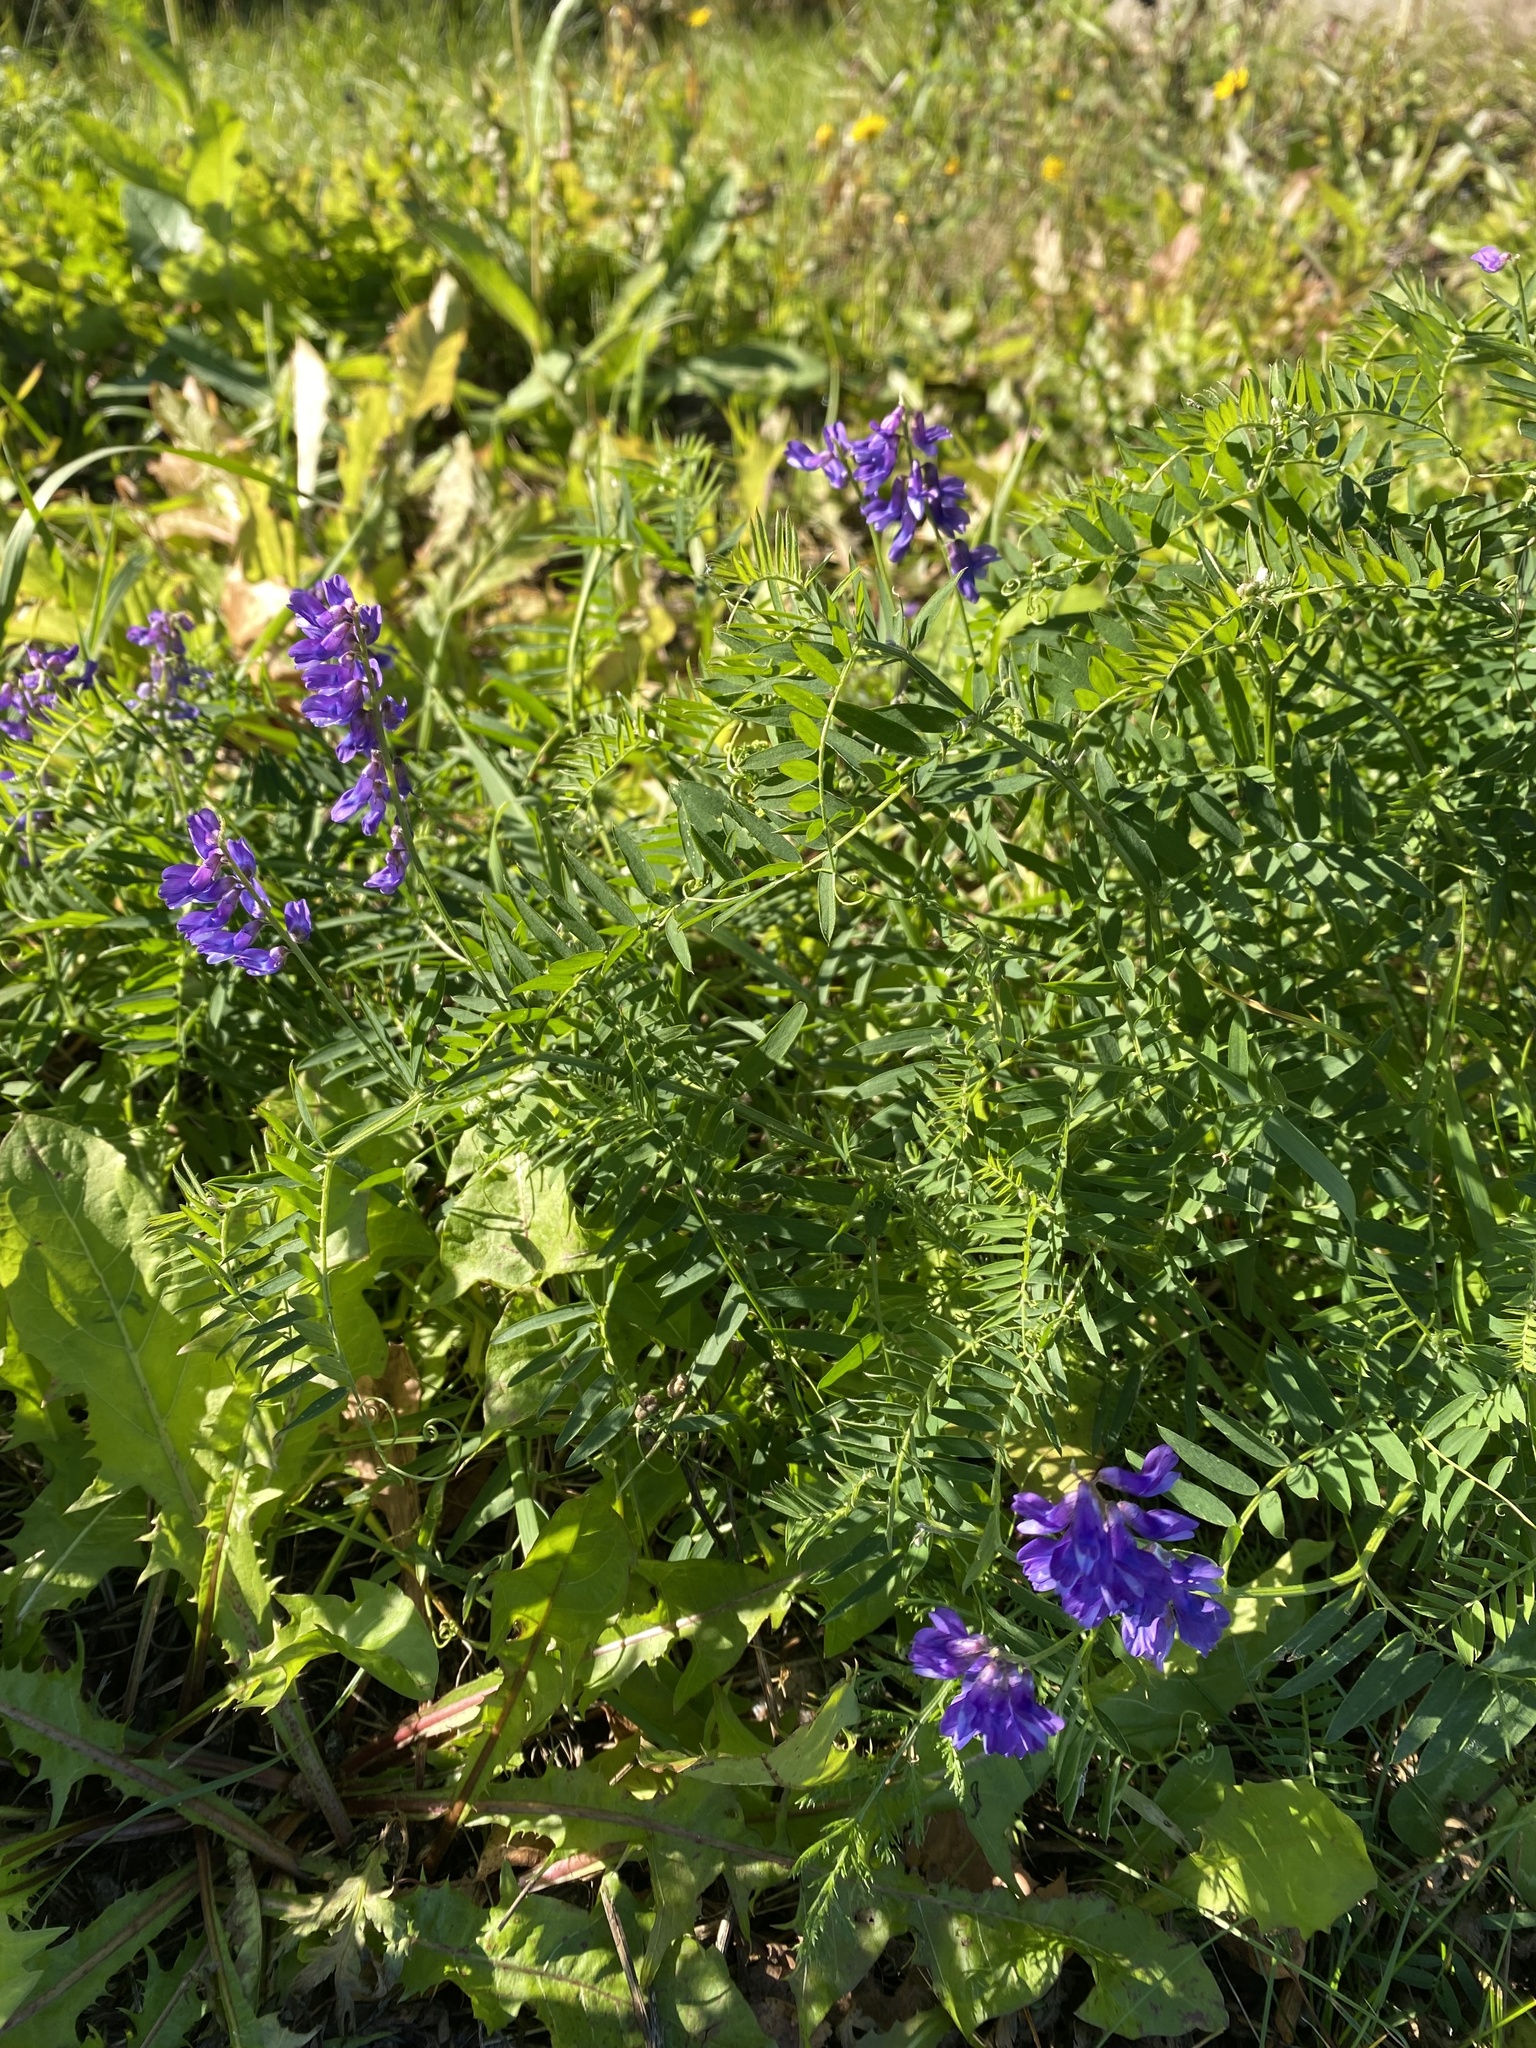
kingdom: Plantae
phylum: Tracheophyta
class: Magnoliopsida
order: Fabales
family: Fabaceae
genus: Vicia
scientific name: Vicia cracca
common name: Bird vetch
